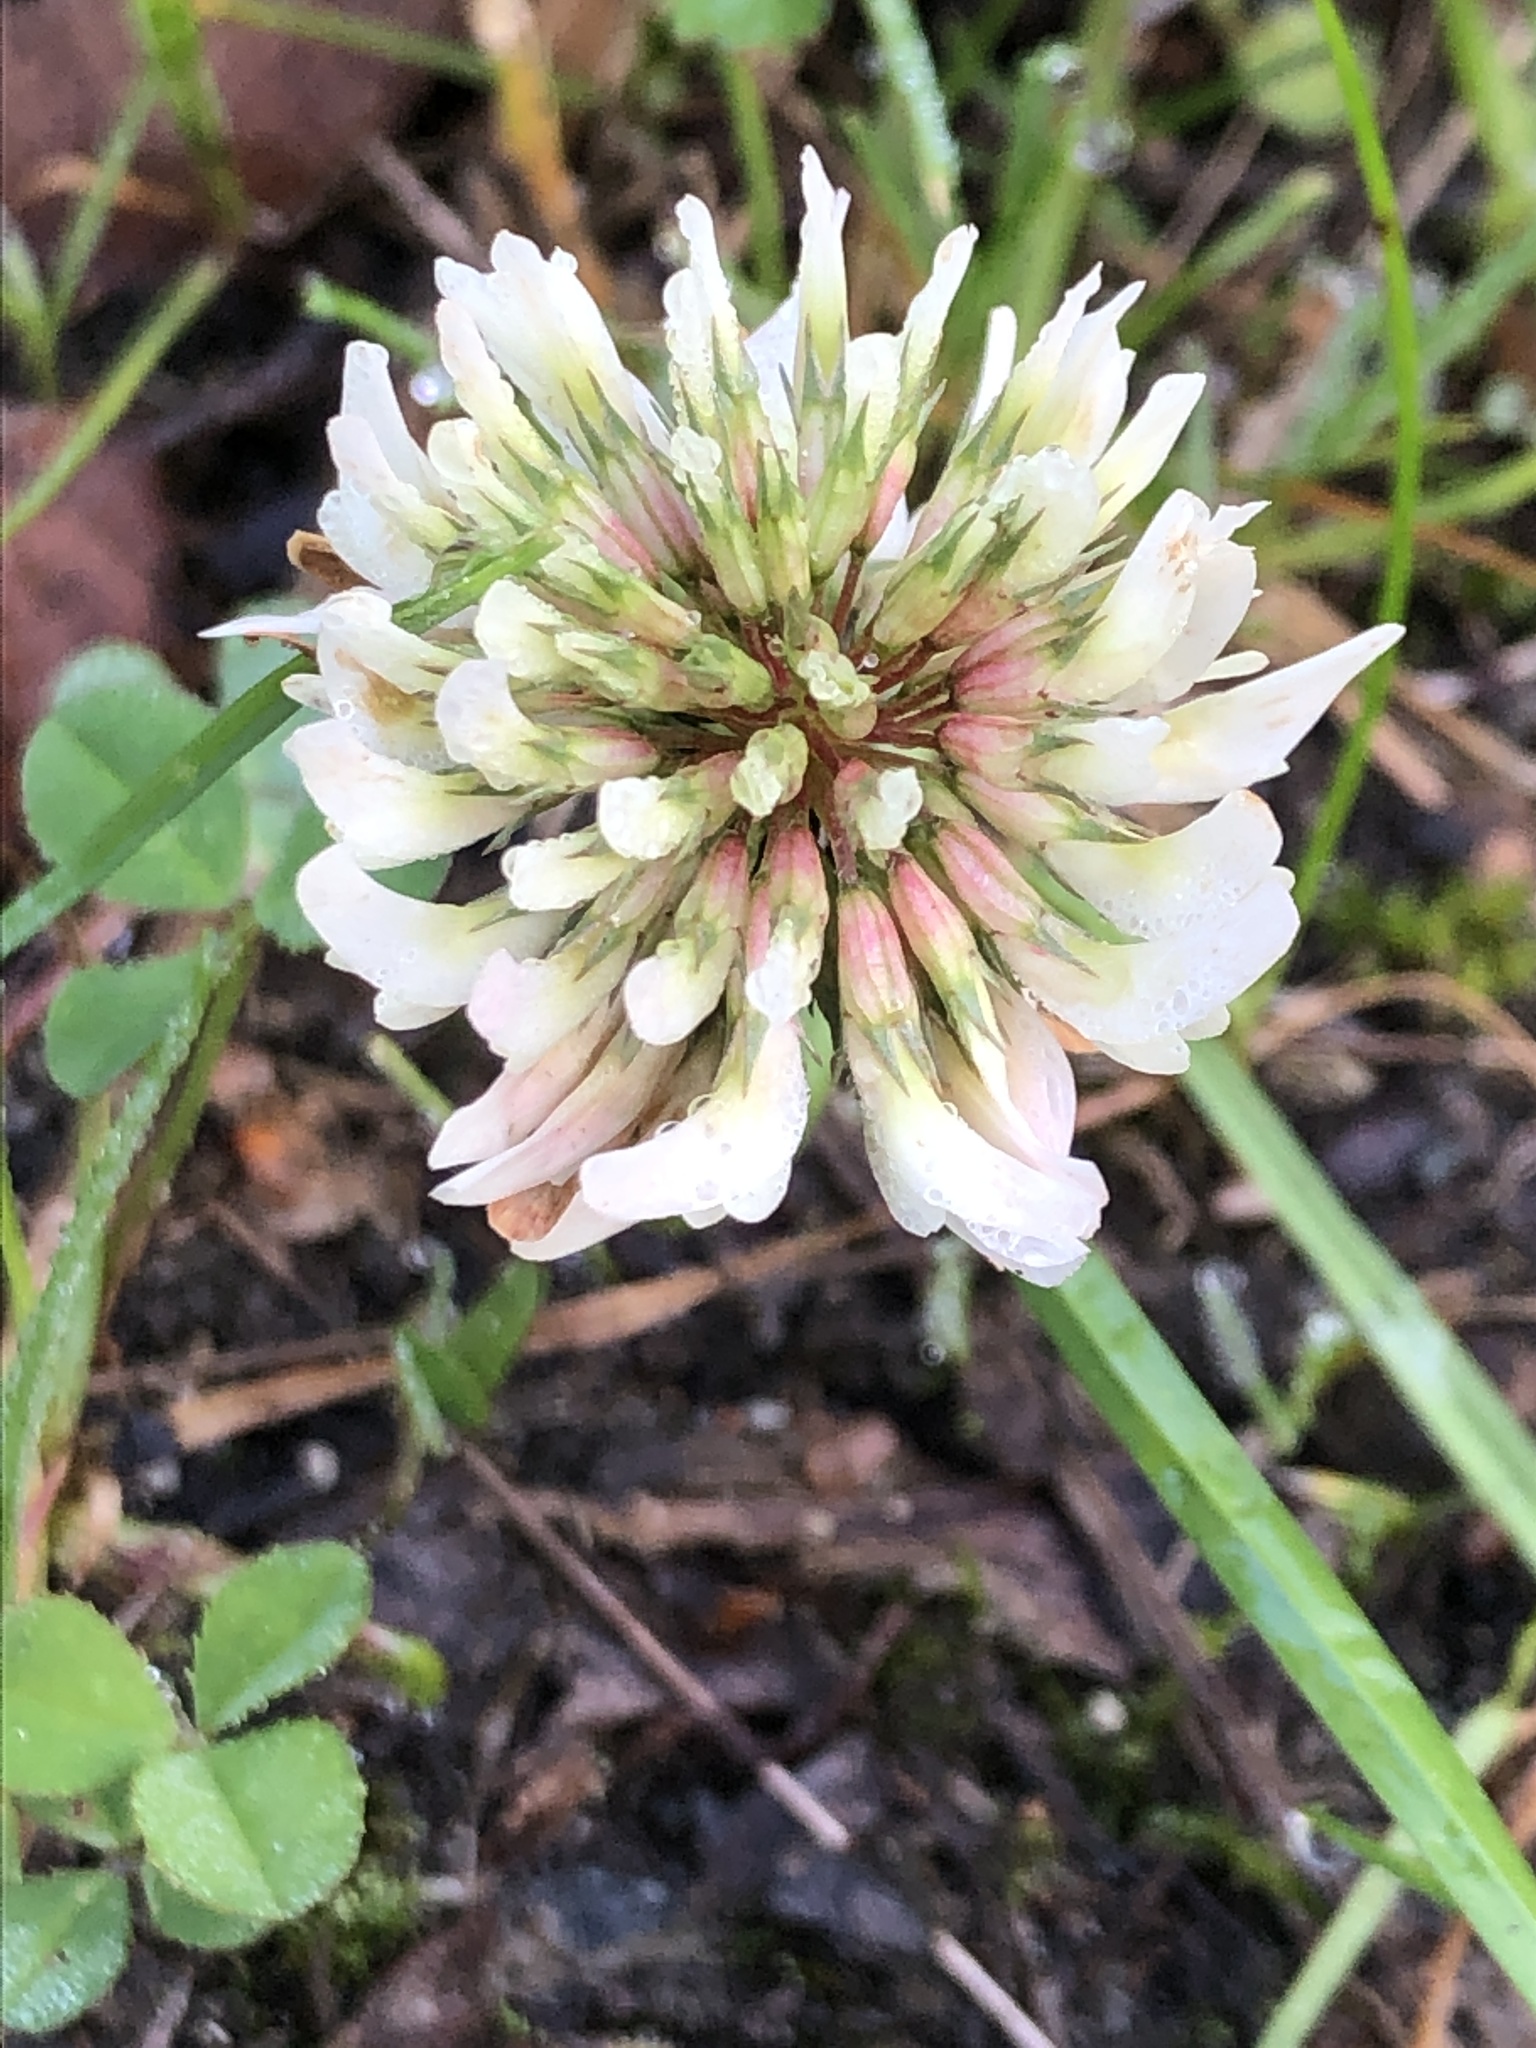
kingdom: Plantae
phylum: Tracheophyta
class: Magnoliopsida
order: Fabales
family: Fabaceae
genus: Trifolium
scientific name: Trifolium repens
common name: White clover
